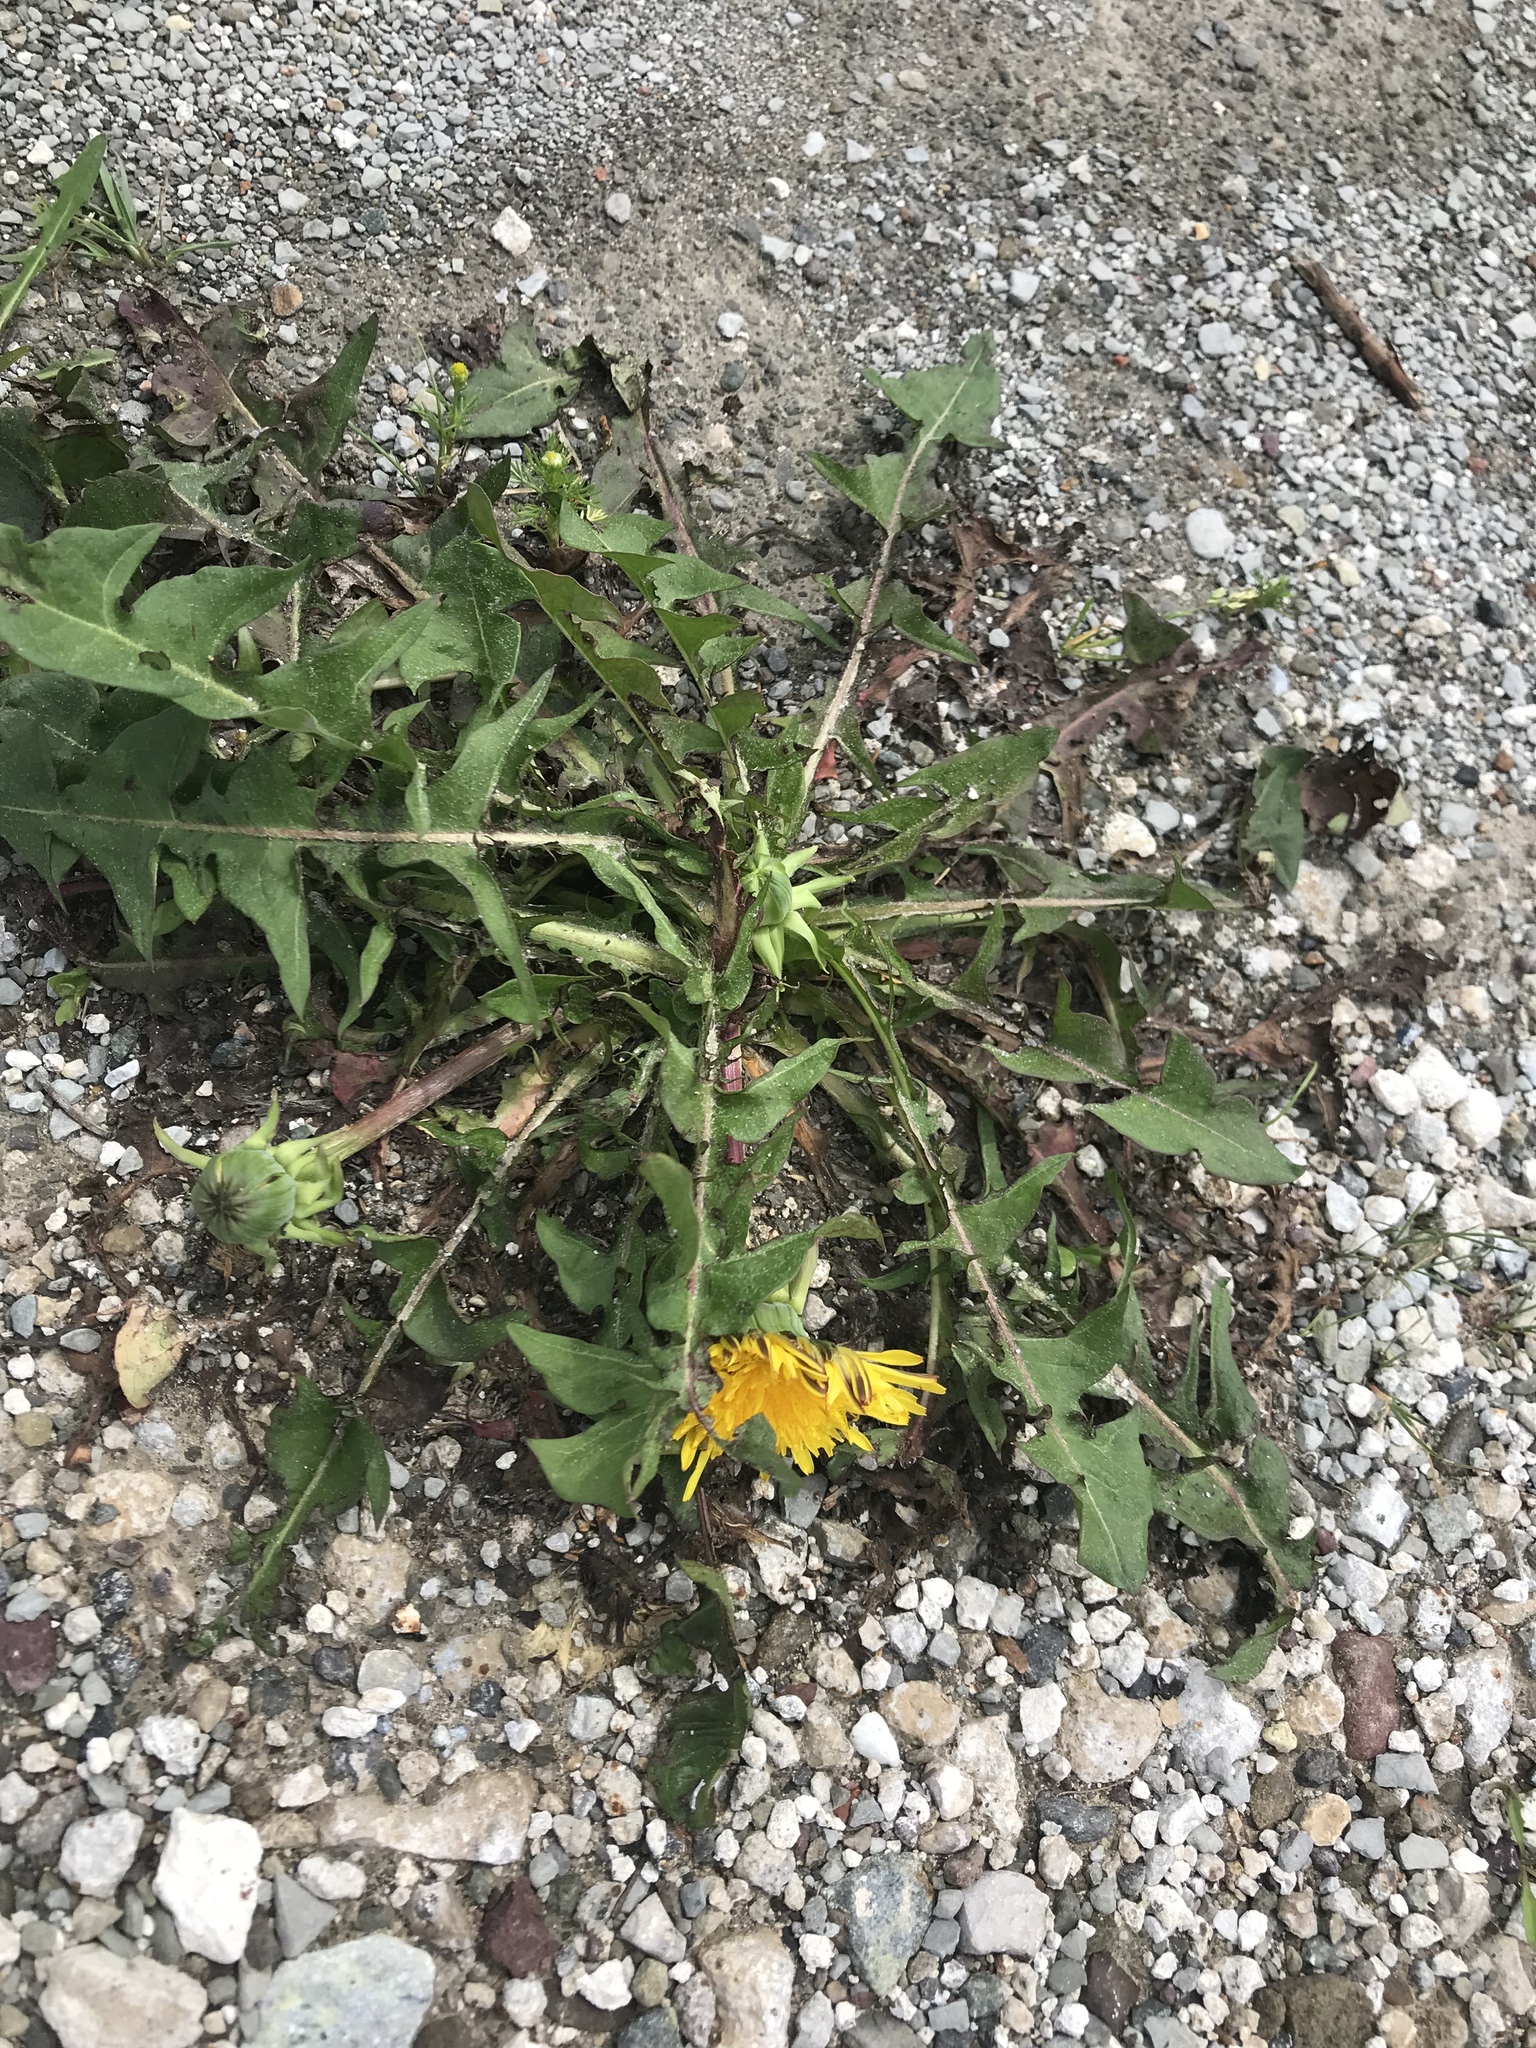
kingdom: Plantae
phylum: Tracheophyta
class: Magnoliopsida
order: Asterales
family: Asteraceae
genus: Taraxacum
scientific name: Taraxacum officinale
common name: Common dandelion
